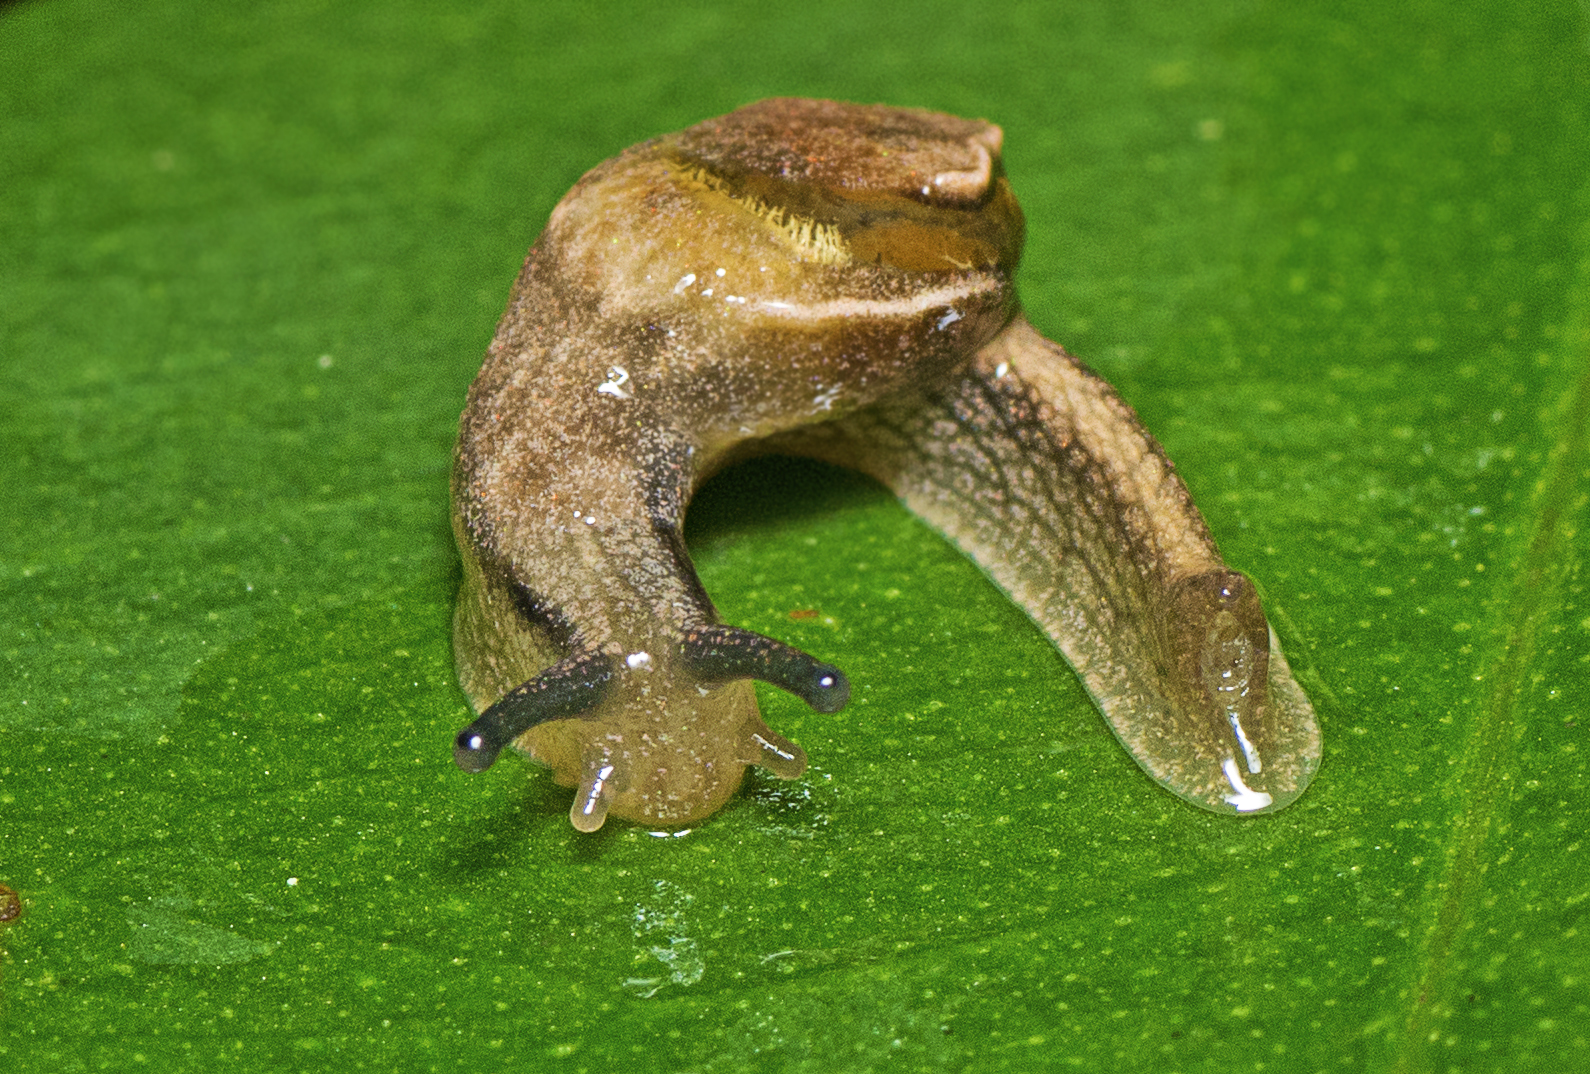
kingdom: Animalia
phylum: Mollusca
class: Gastropoda
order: Stylommatophora
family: Helicarionidae
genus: Ubiquitarion
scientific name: Ubiquitarion iridis
